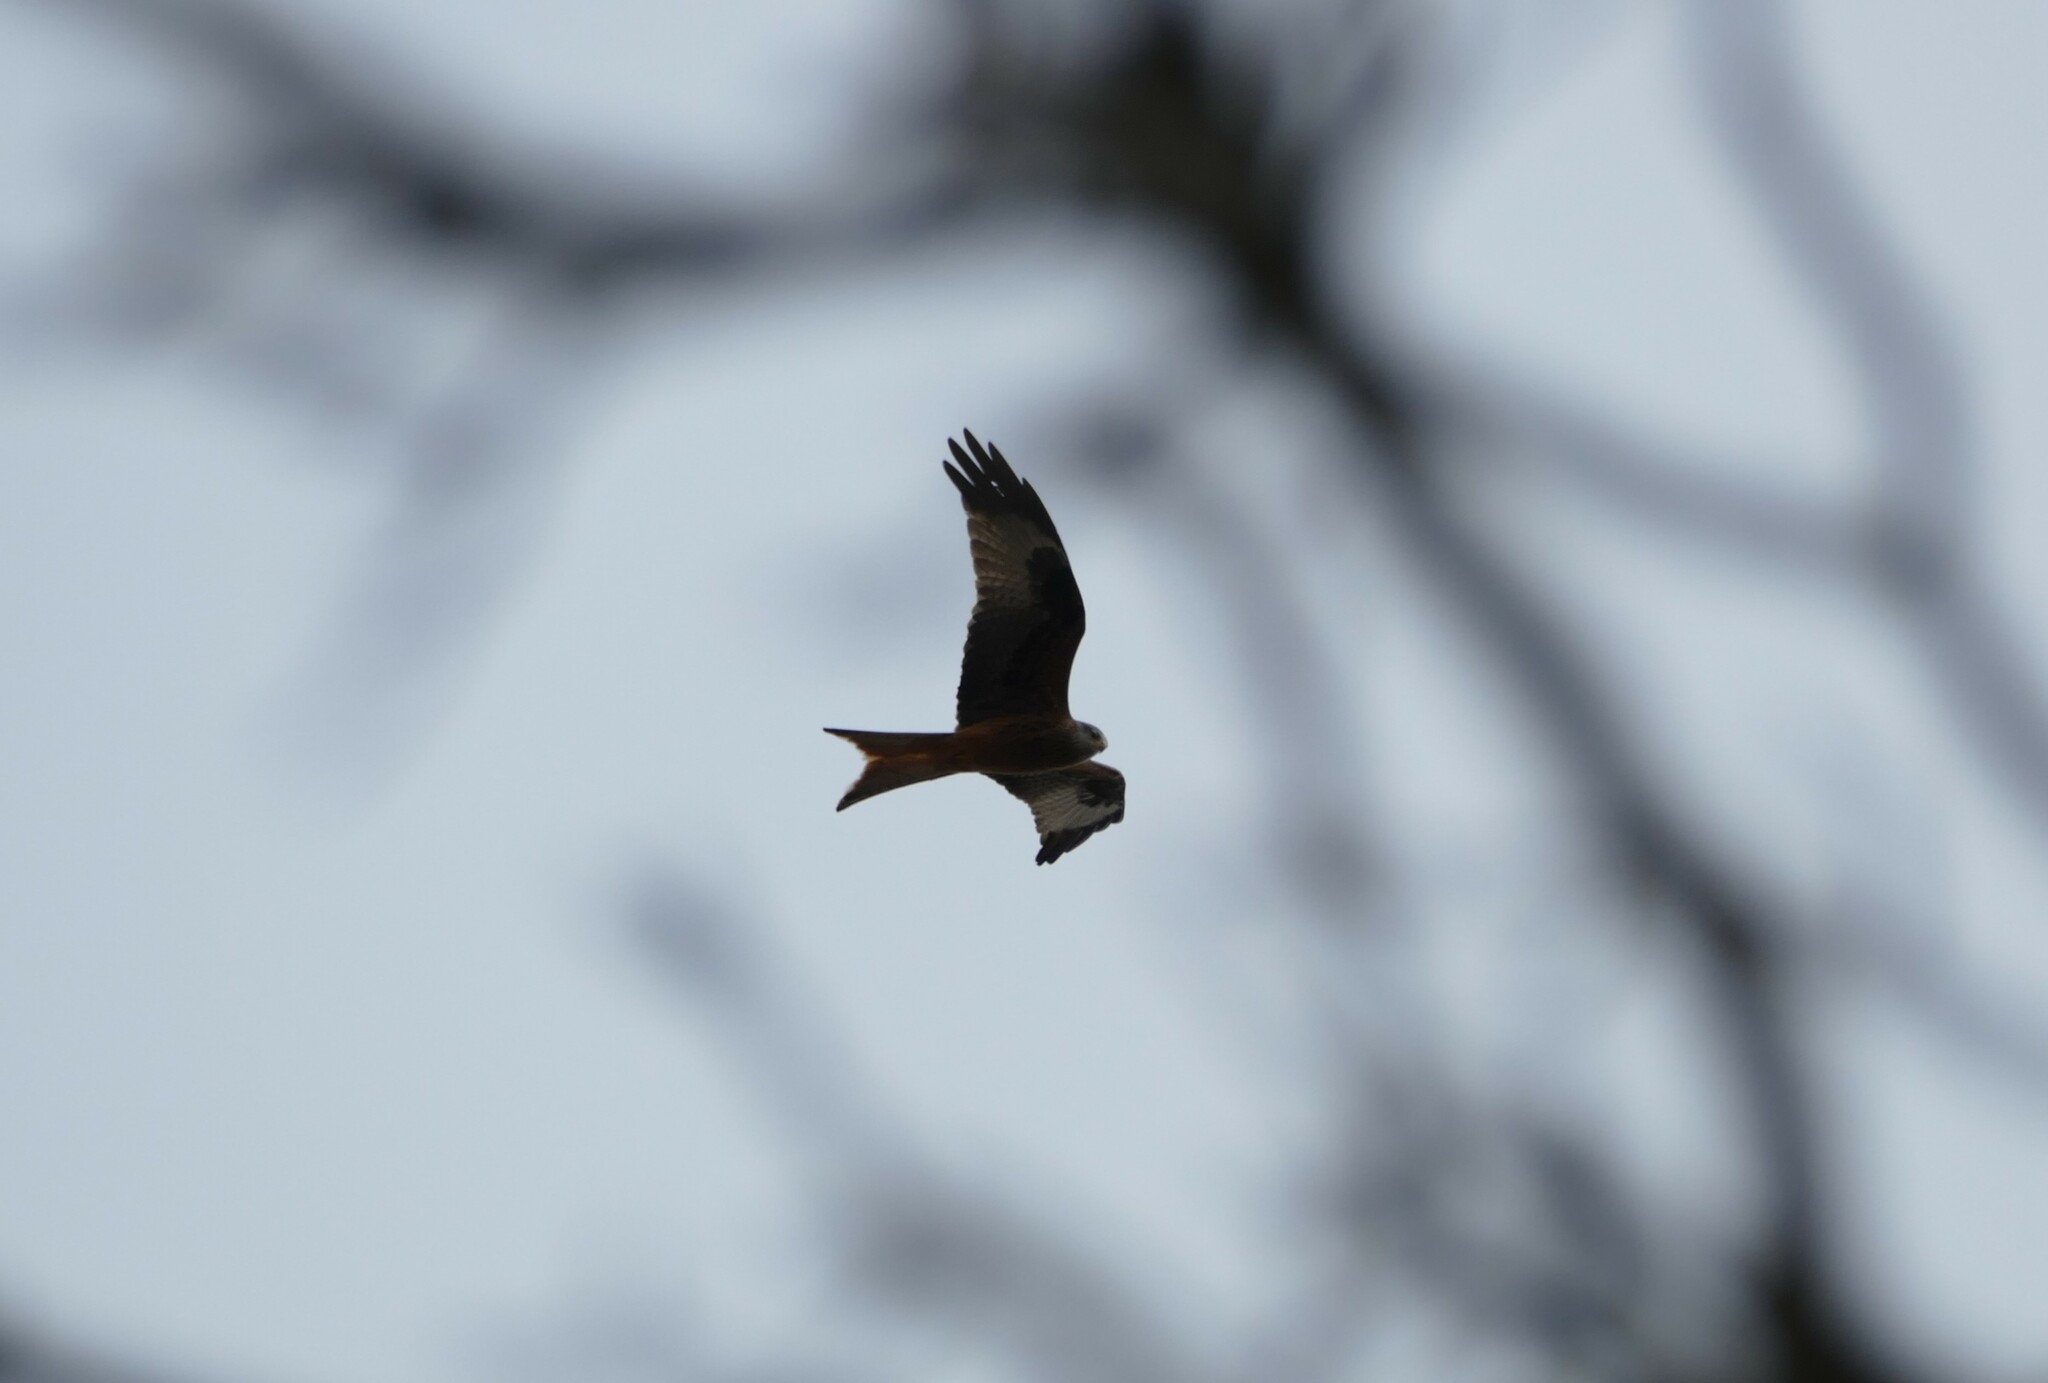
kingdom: Animalia
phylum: Chordata
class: Aves
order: Accipitriformes
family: Accipitridae
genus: Milvus
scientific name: Milvus milvus
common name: Red kite
